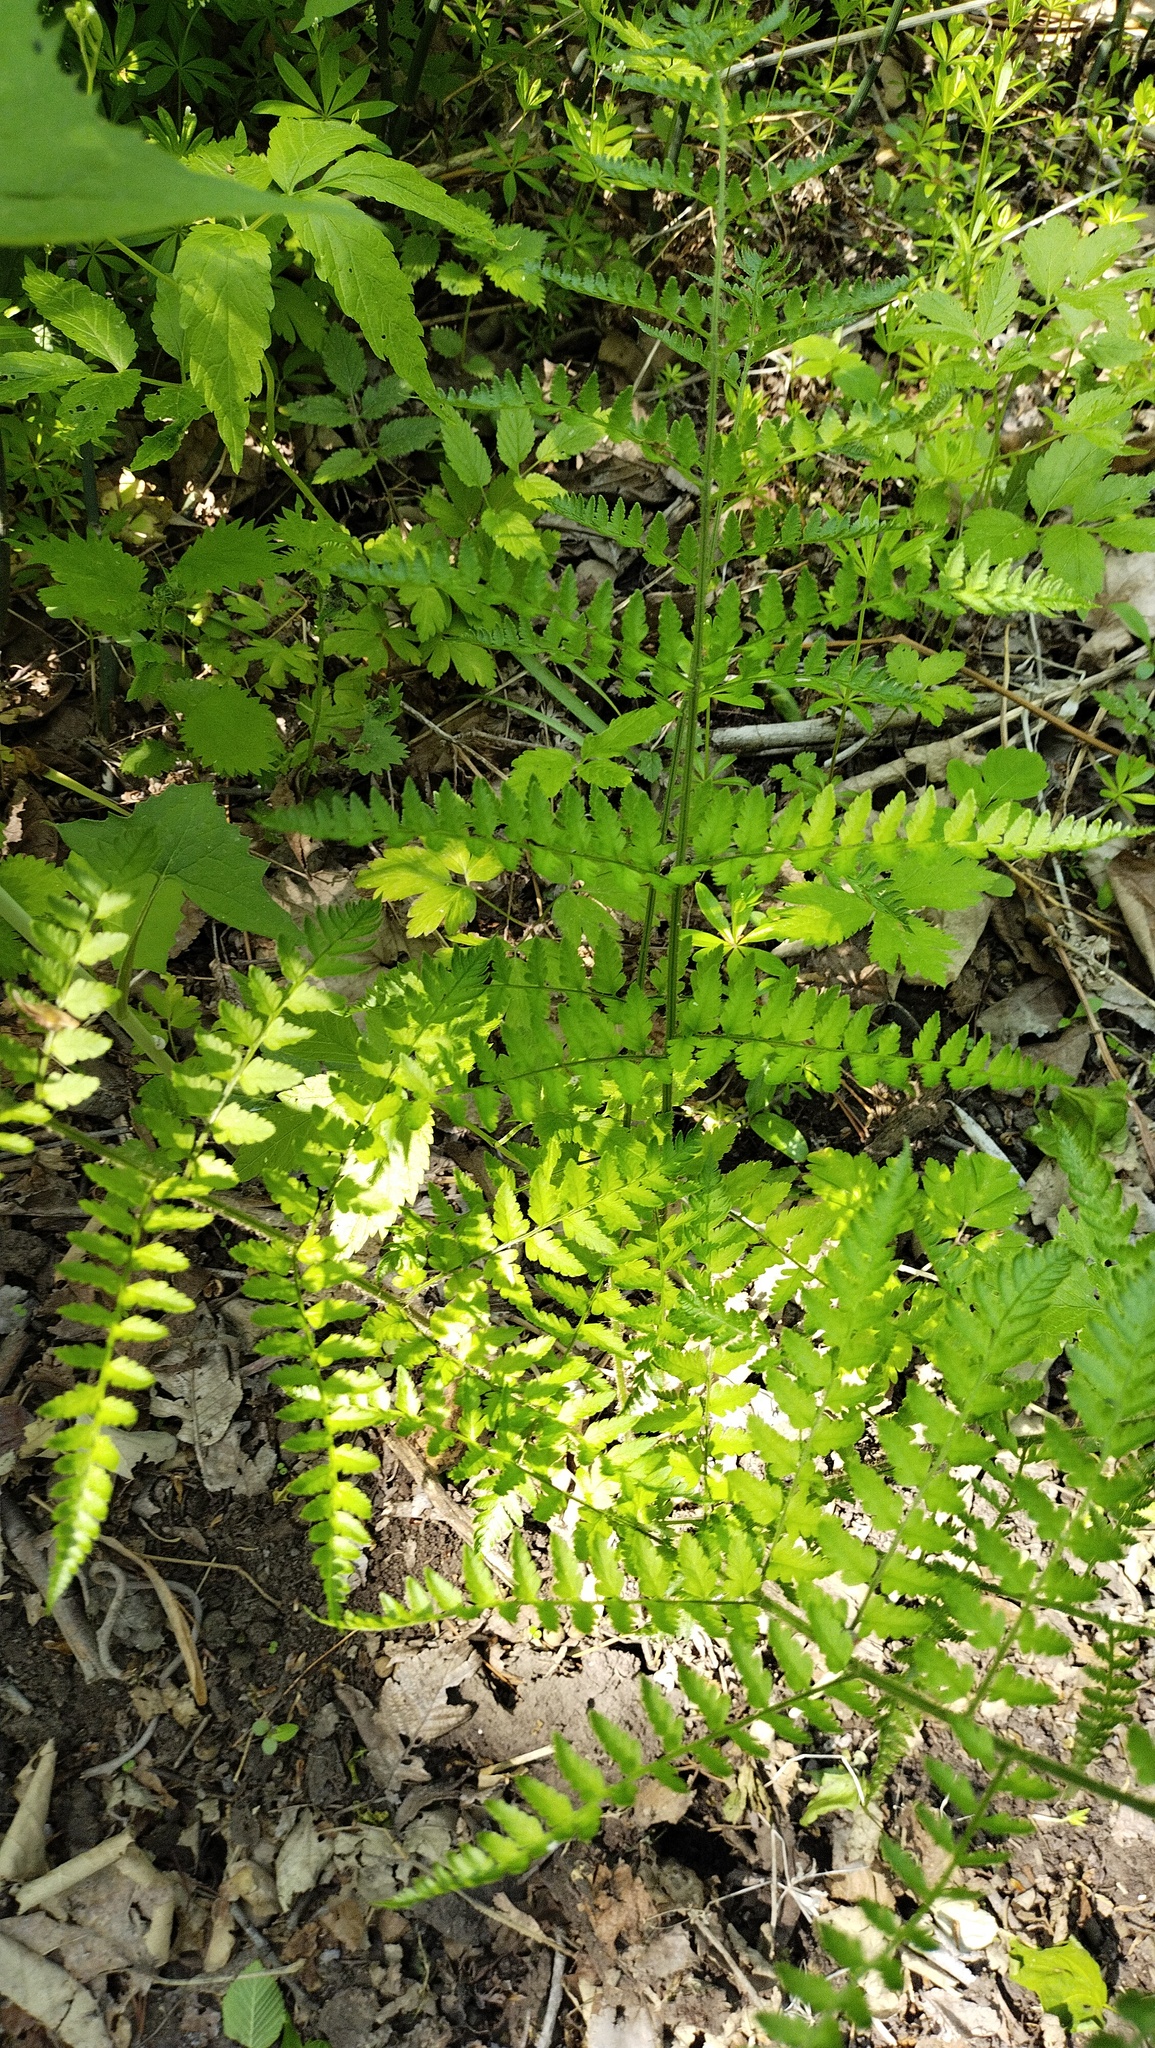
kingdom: Plantae
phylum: Tracheophyta
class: Polypodiopsida
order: Polypodiales
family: Dryopteridaceae
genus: Dryopteris
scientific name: Dryopteris goeringiana
